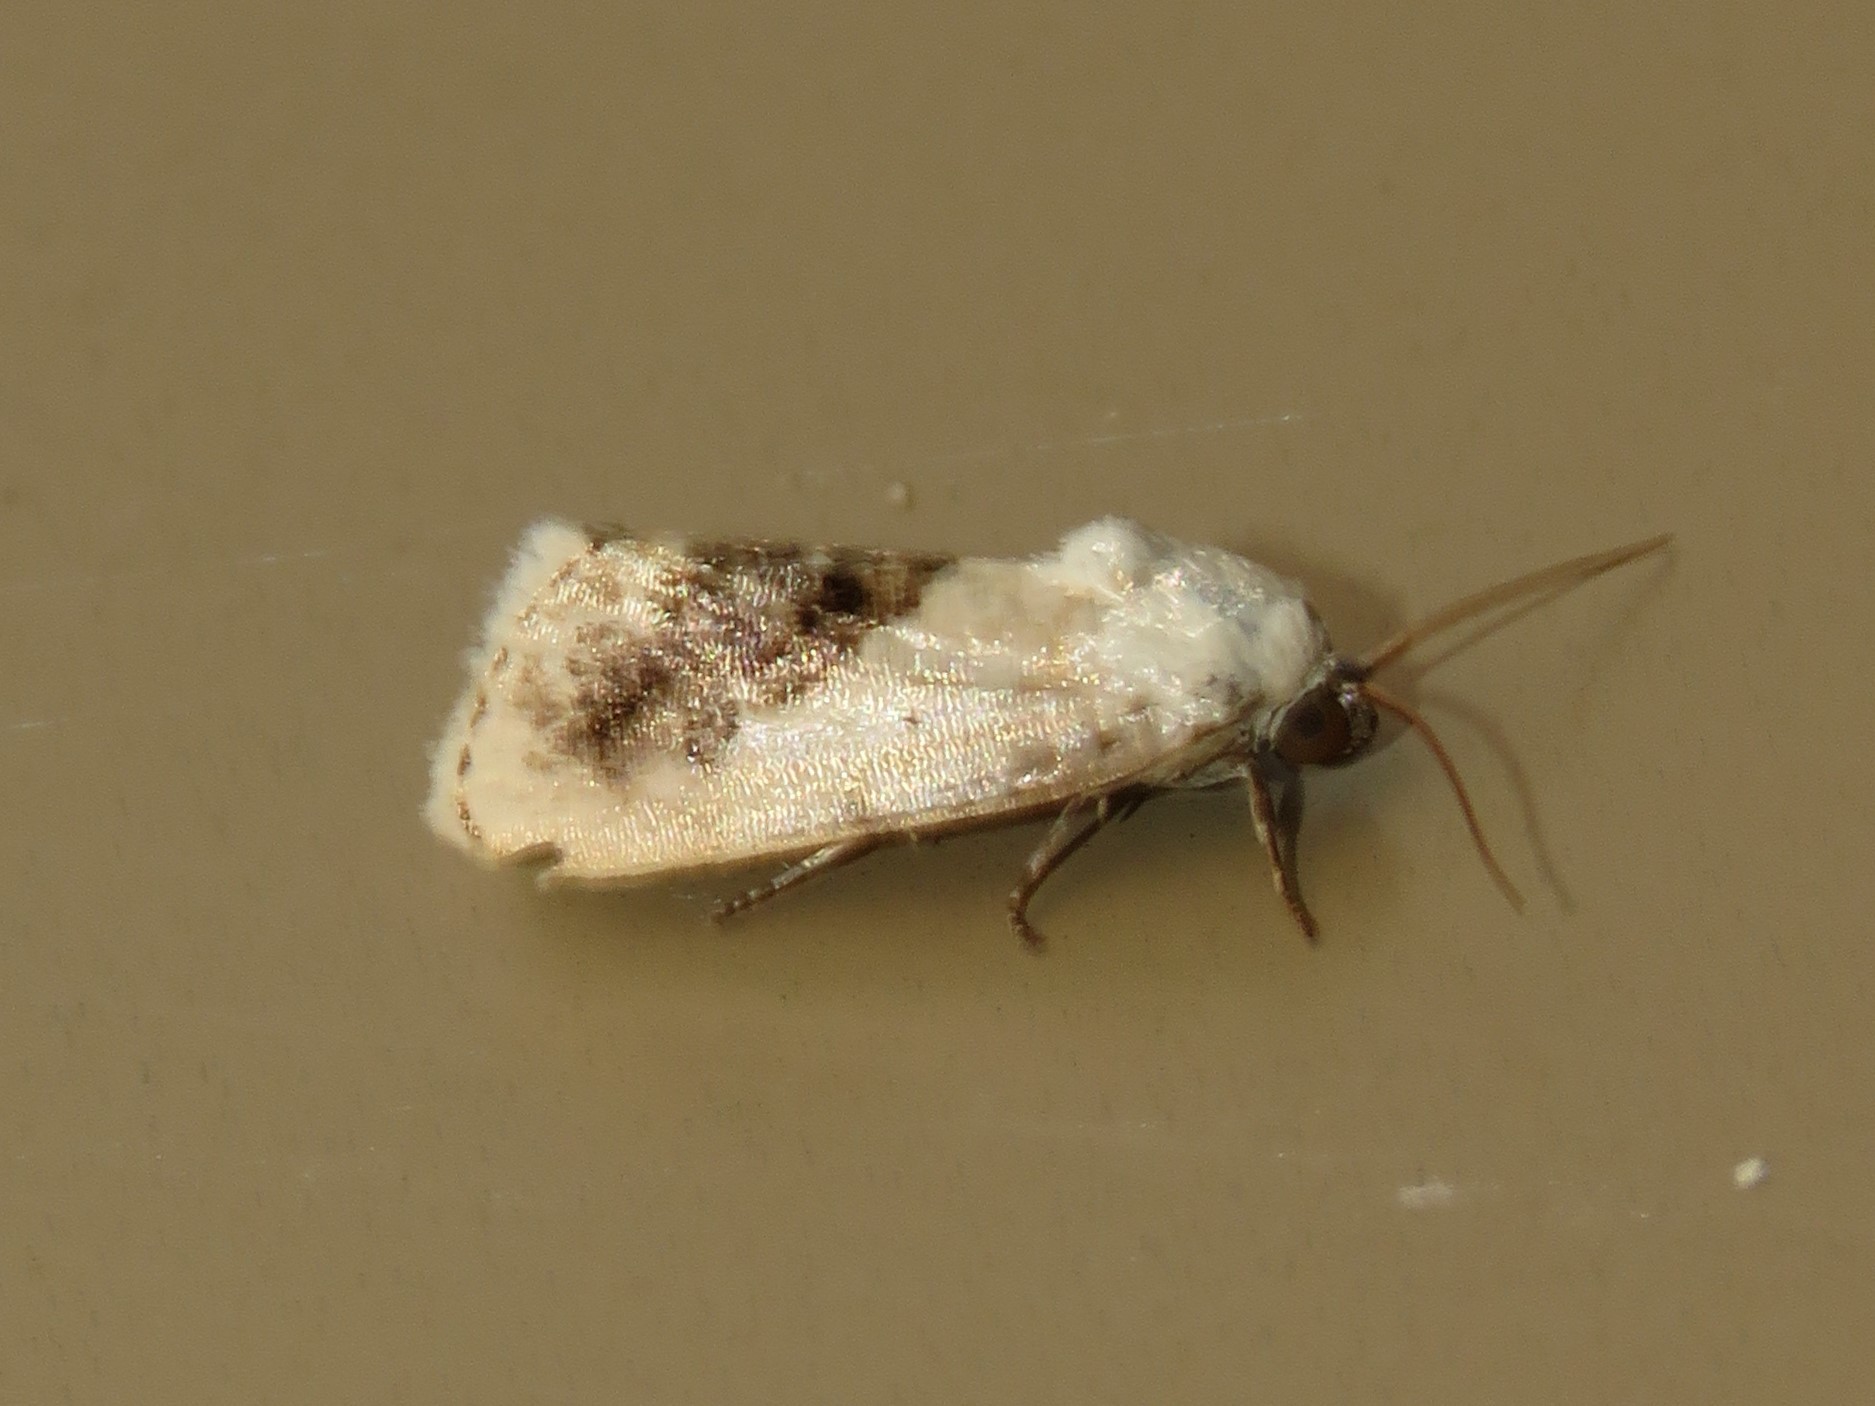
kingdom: Animalia
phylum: Arthropoda
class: Insecta
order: Lepidoptera
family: Noctuidae
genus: Acontia
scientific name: Acontia erastrioides
